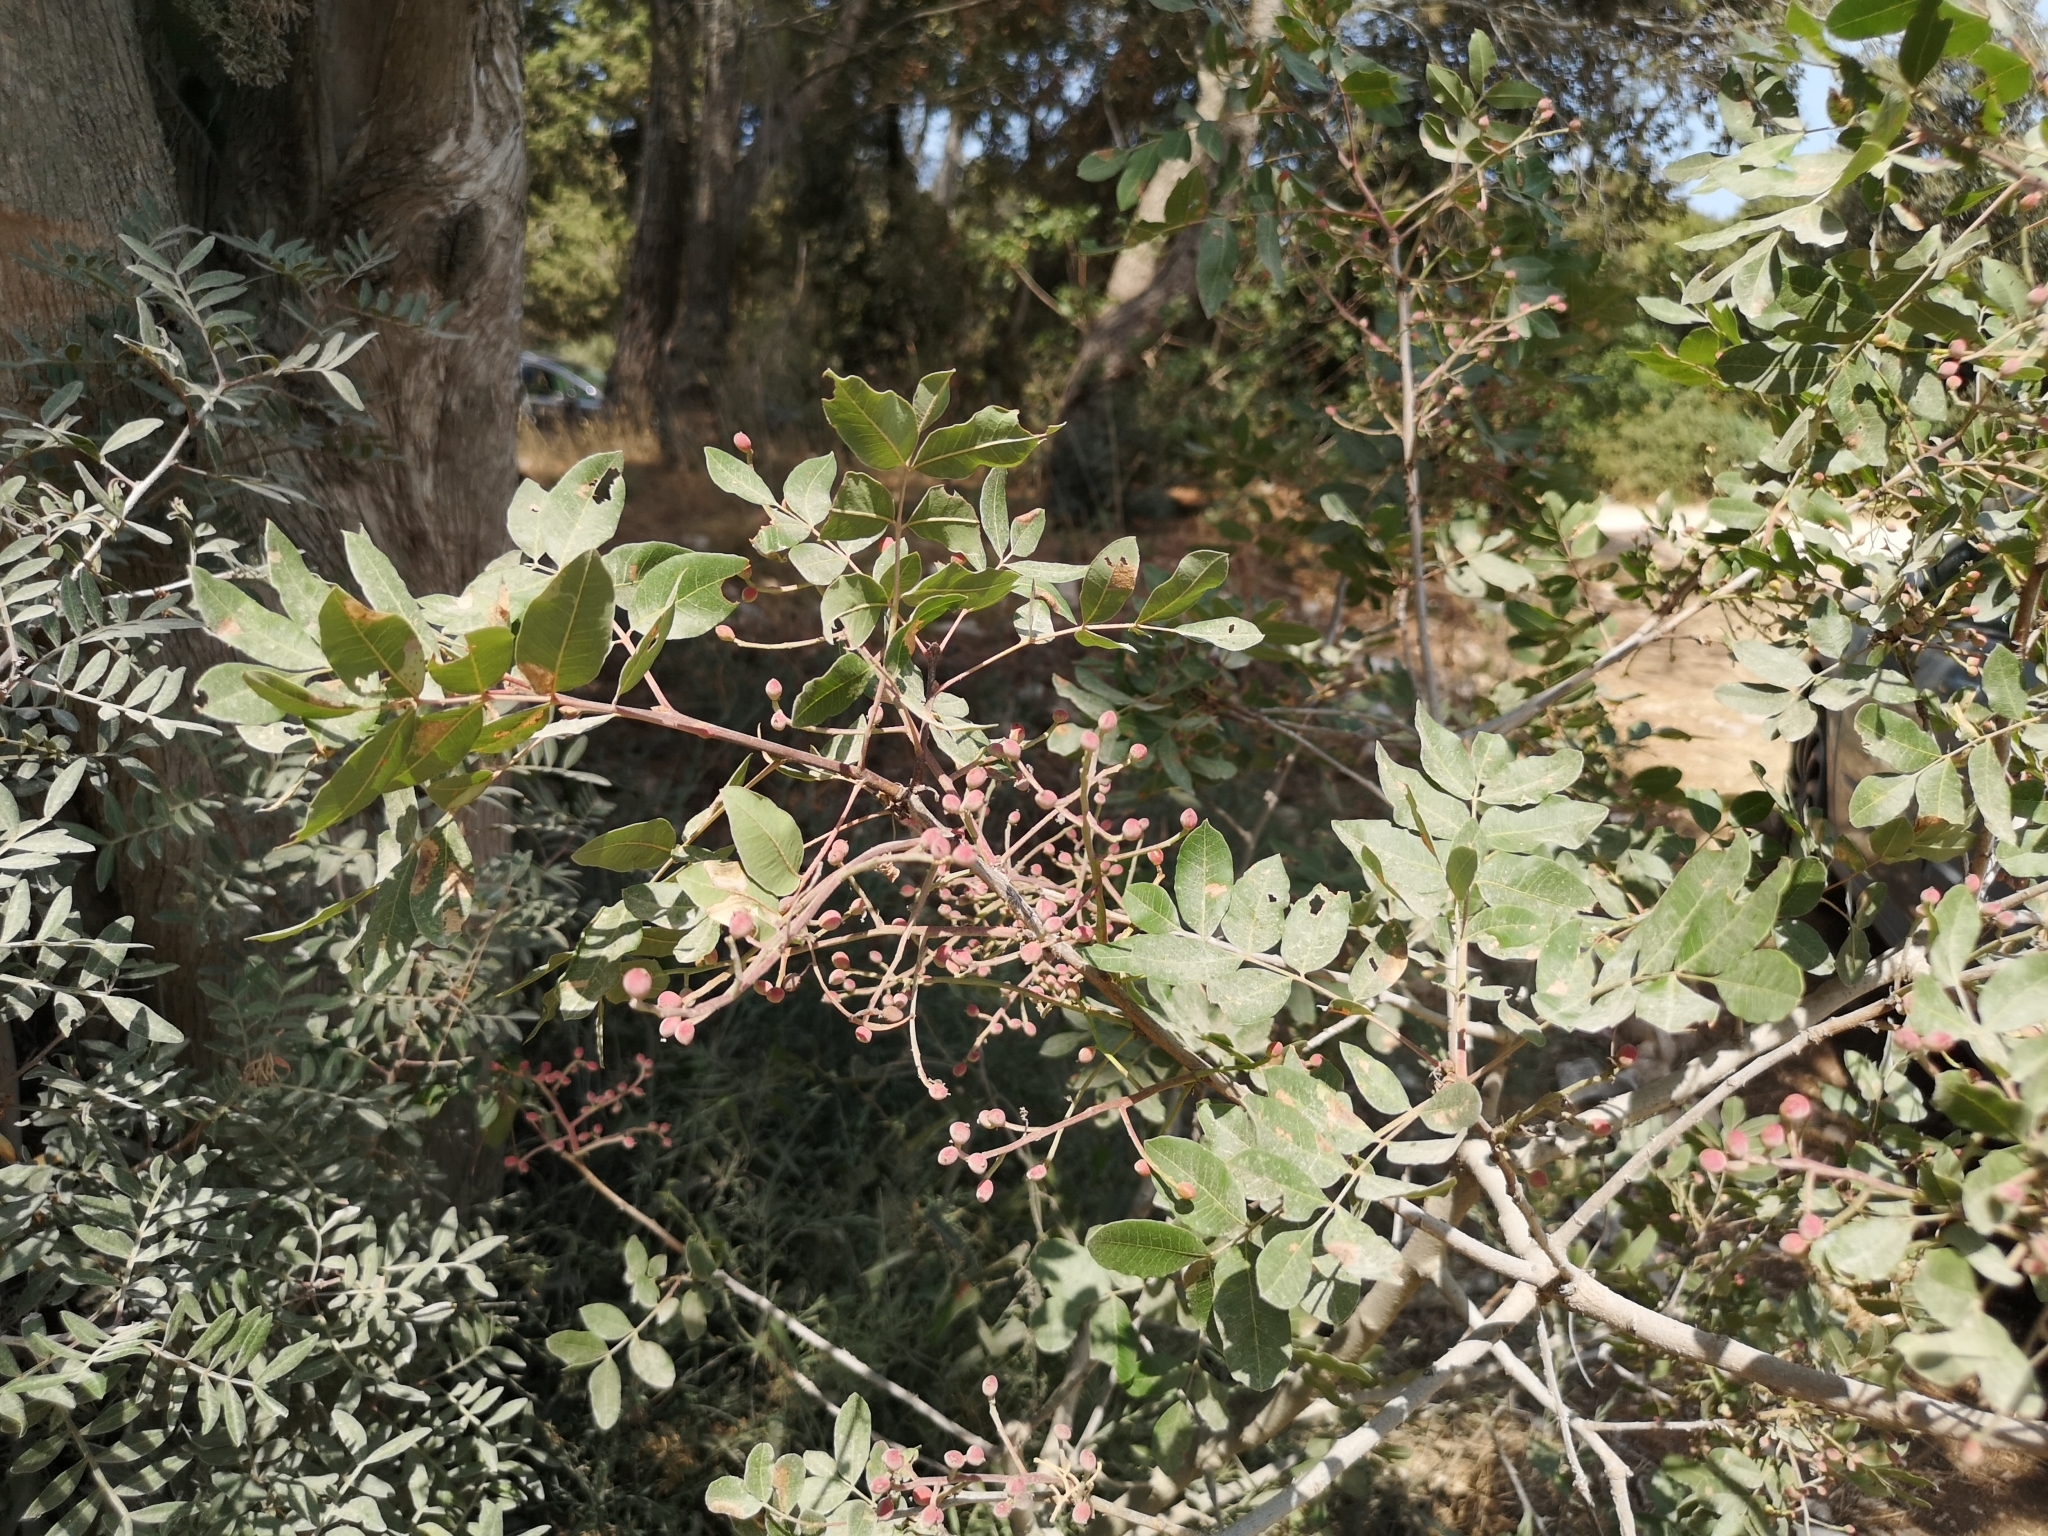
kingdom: Plantae
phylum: Tracheophyta
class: Magnoliopsida
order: Sapindales
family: Anacardiaceae
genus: Pistacia
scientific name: Pistacia terebinthus
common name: Terebinth
